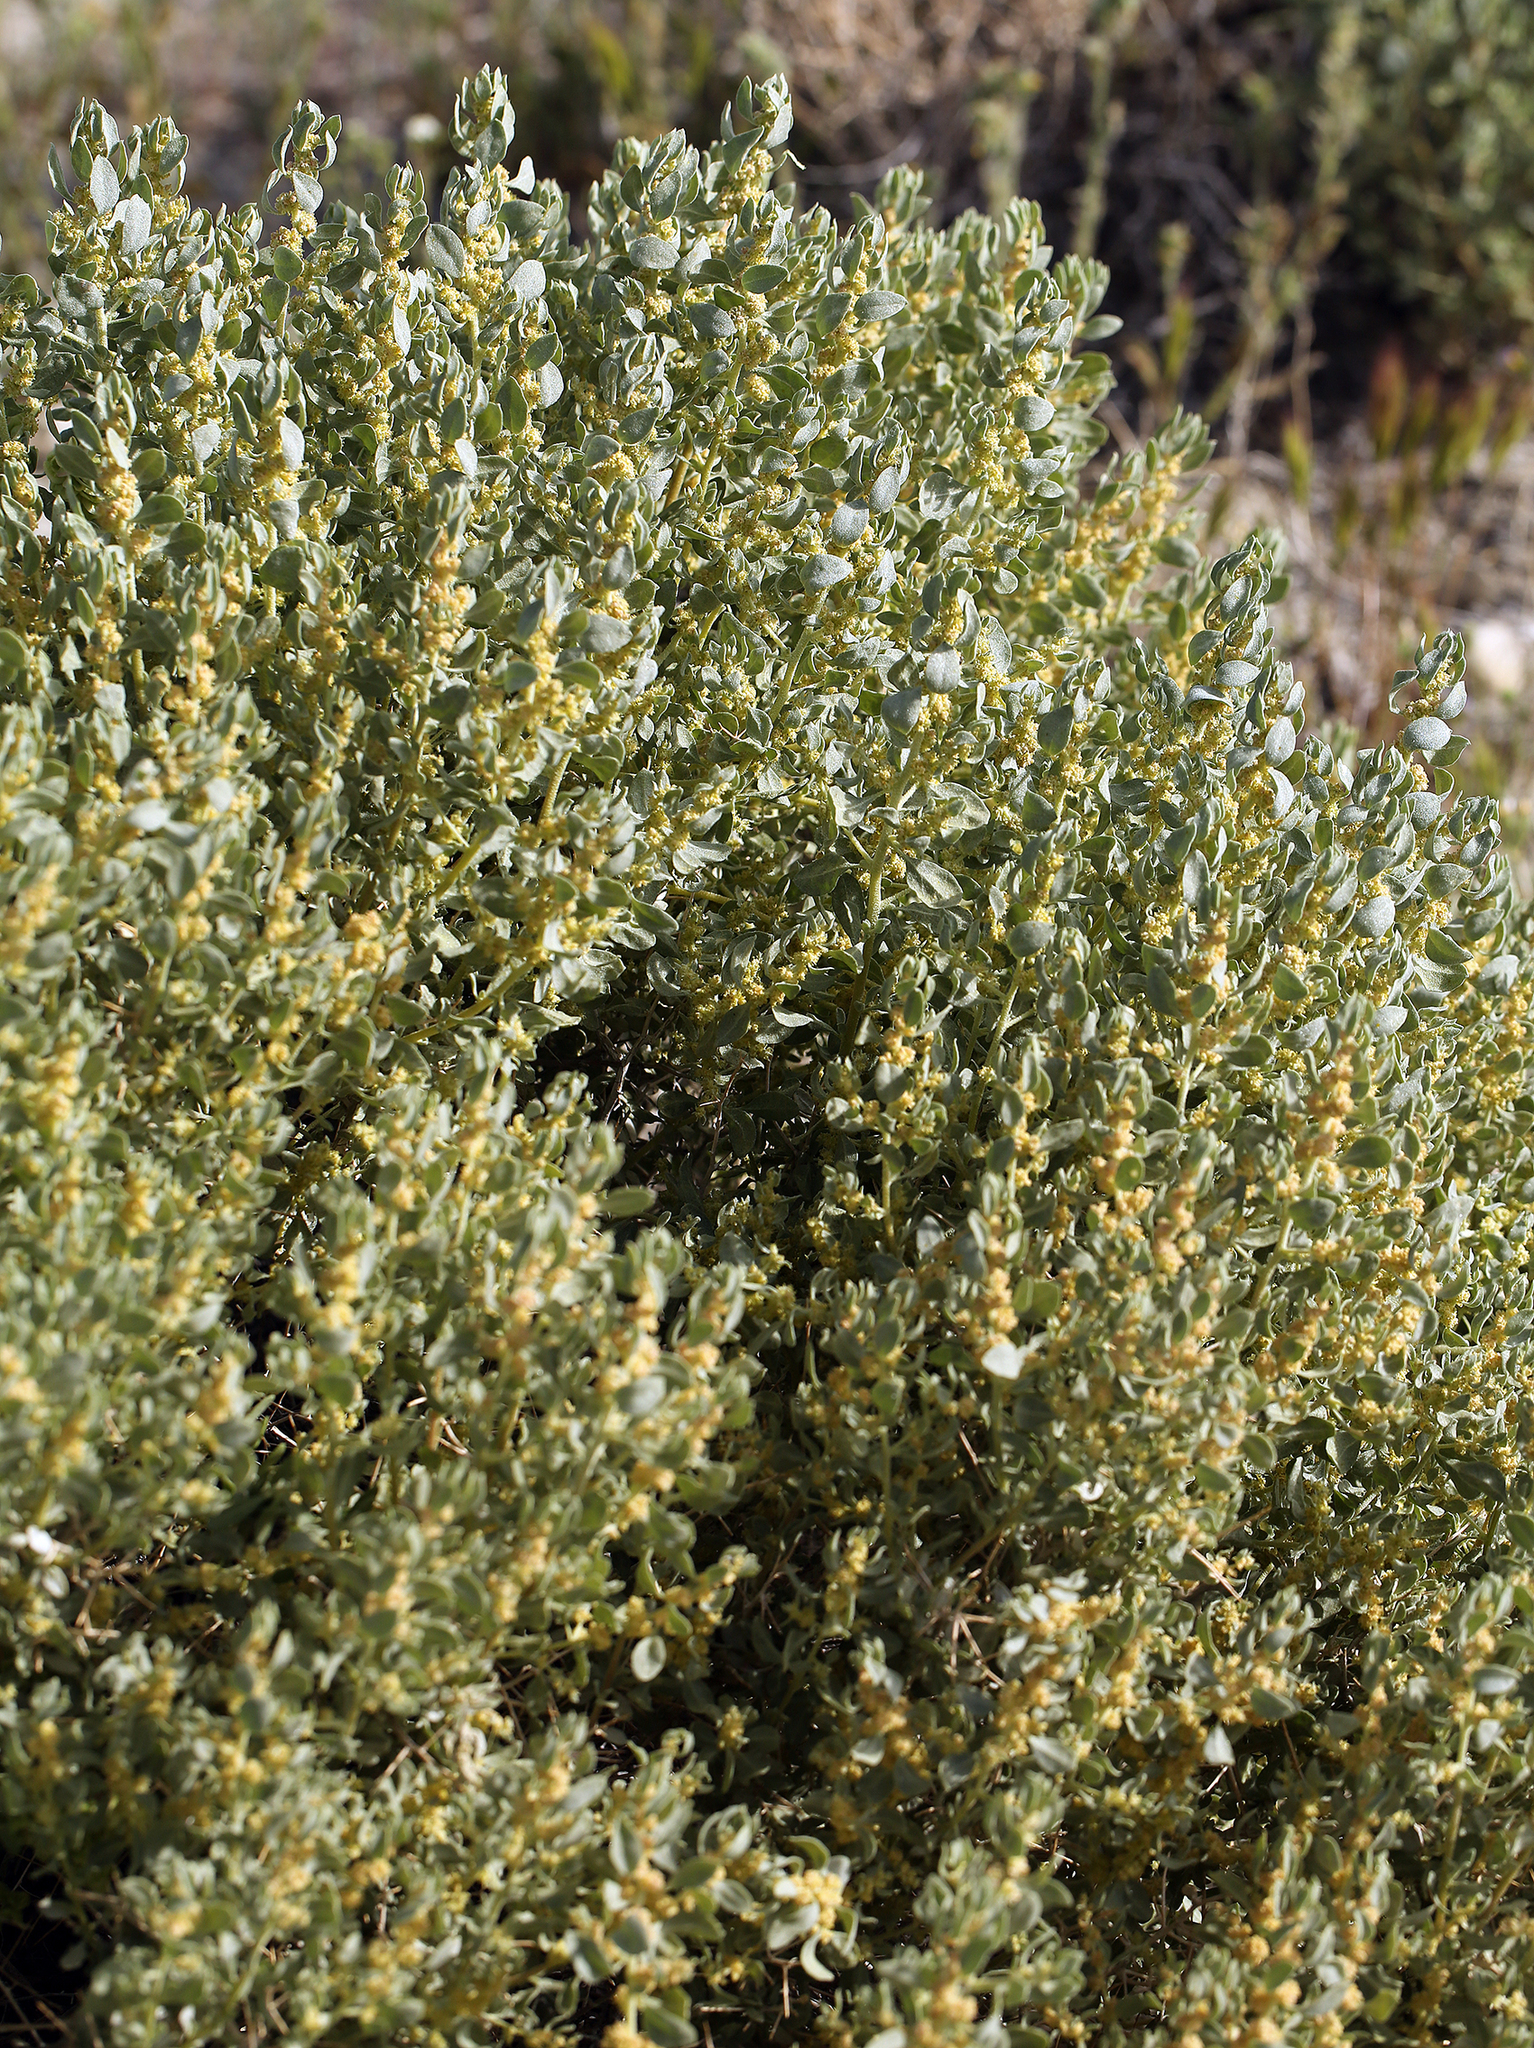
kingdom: Plantae
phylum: Tracheophyta
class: Magnoliopsida
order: Caryophyllales
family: Amaranthaceae
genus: Atriplex
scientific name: Atriplex confertifolia
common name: Shadscale
